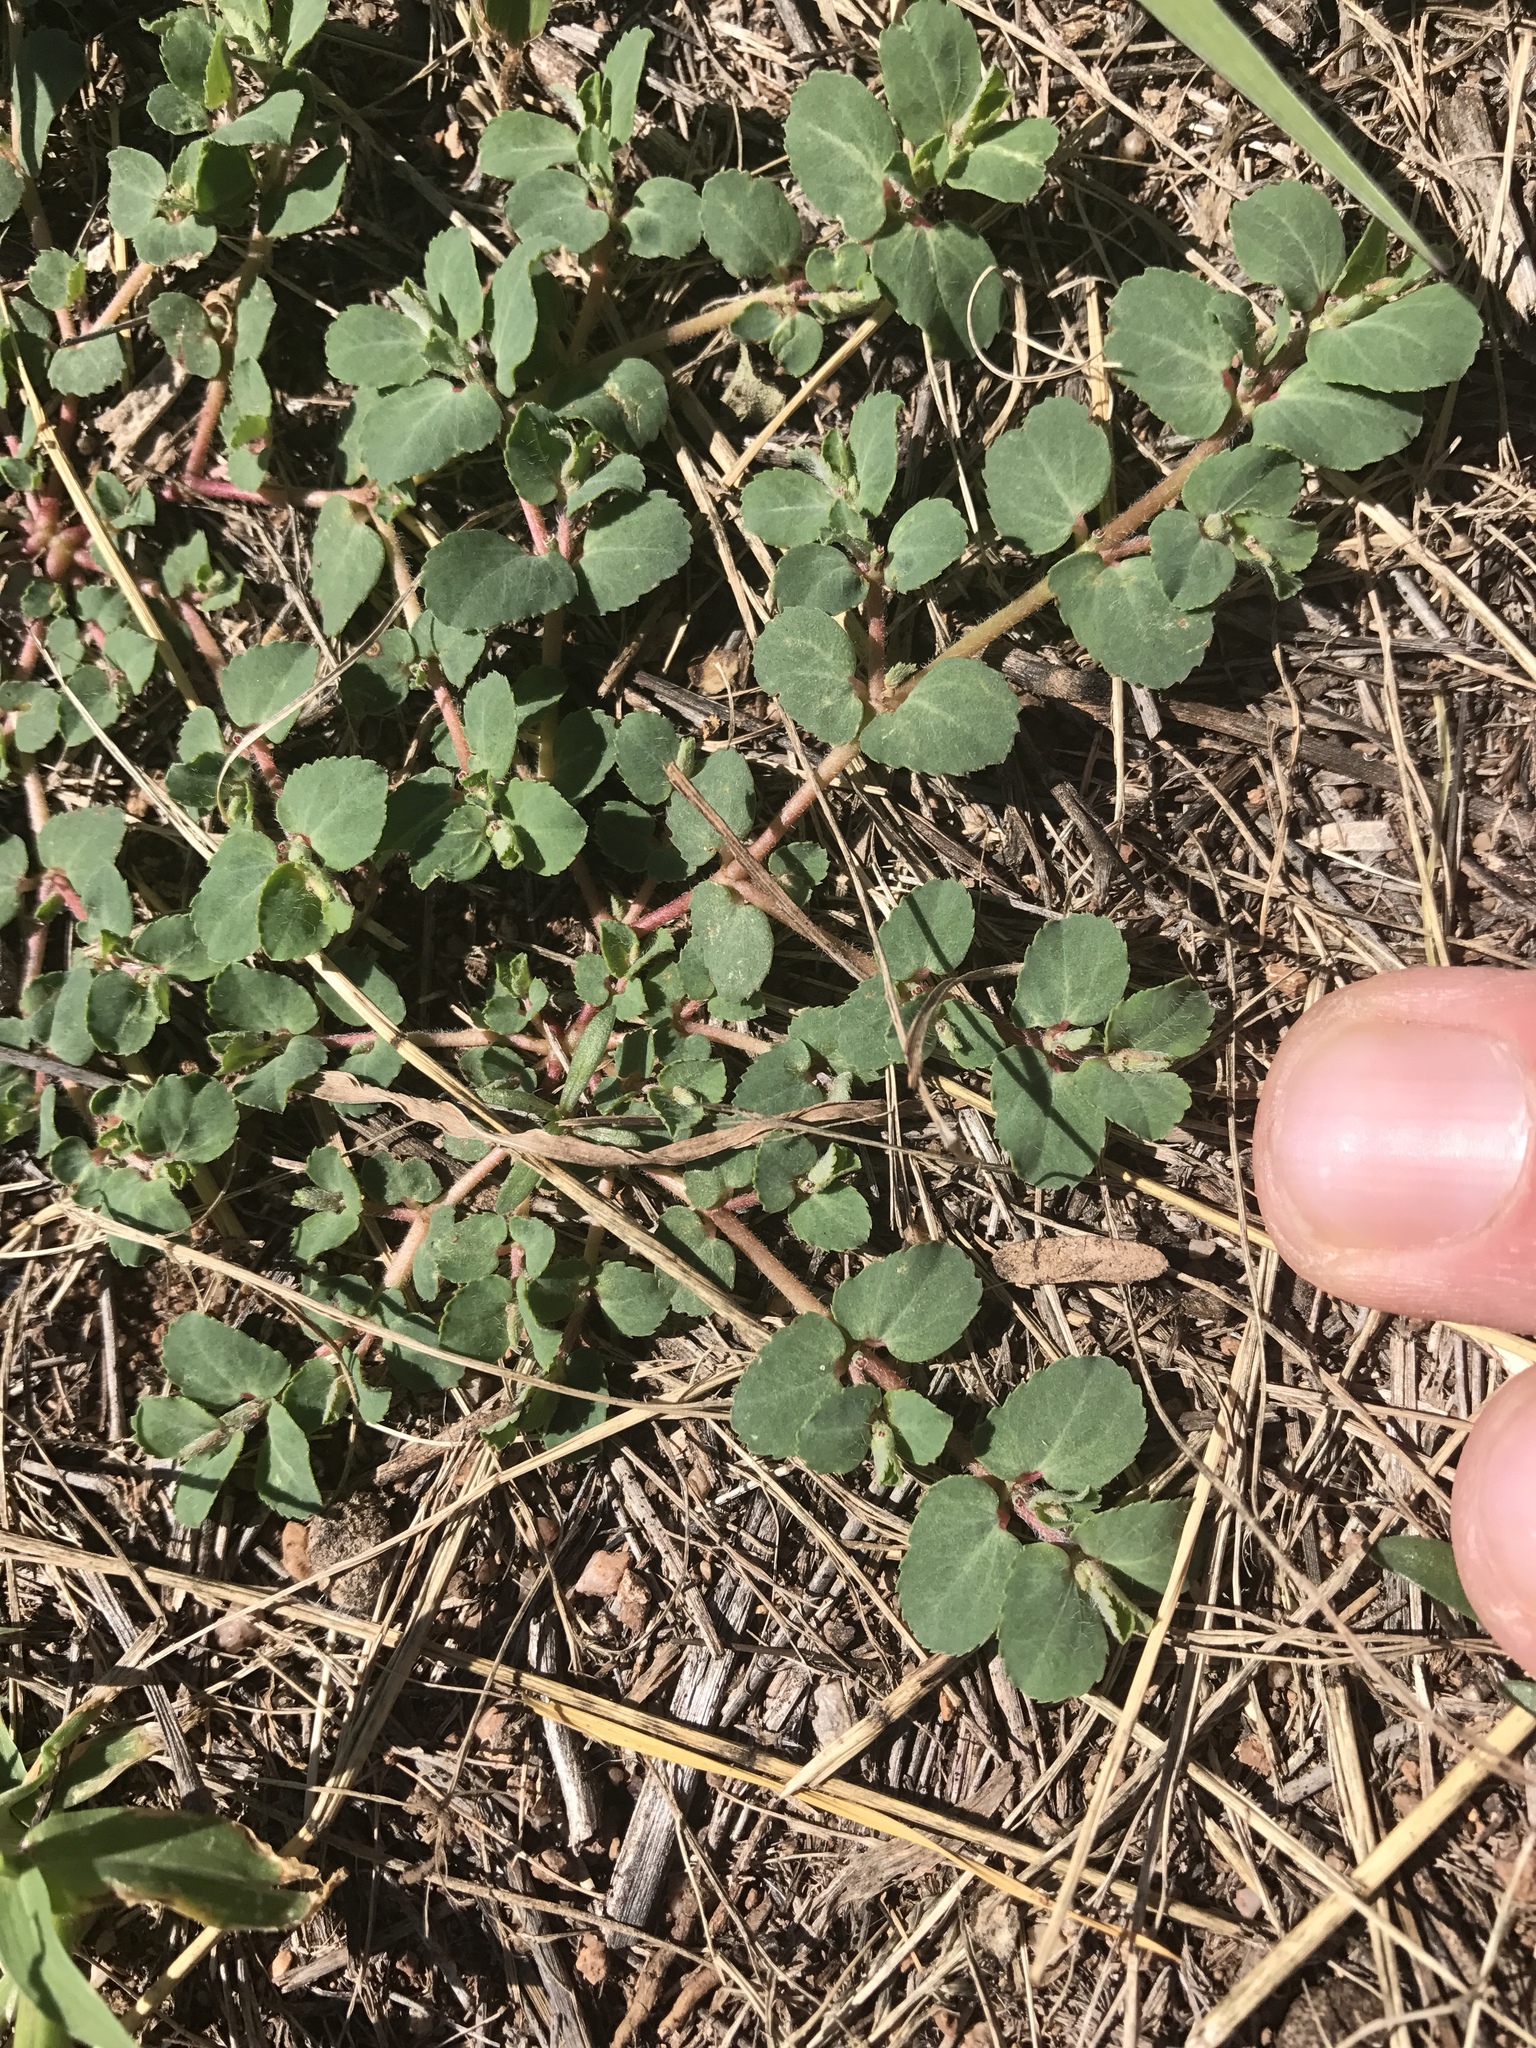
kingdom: Plantae
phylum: Tracheophyta
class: Magnoliopsida
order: Malpighiales
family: Euphorbiaceae
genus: Euphorbia
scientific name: Euphorbia stictospora
